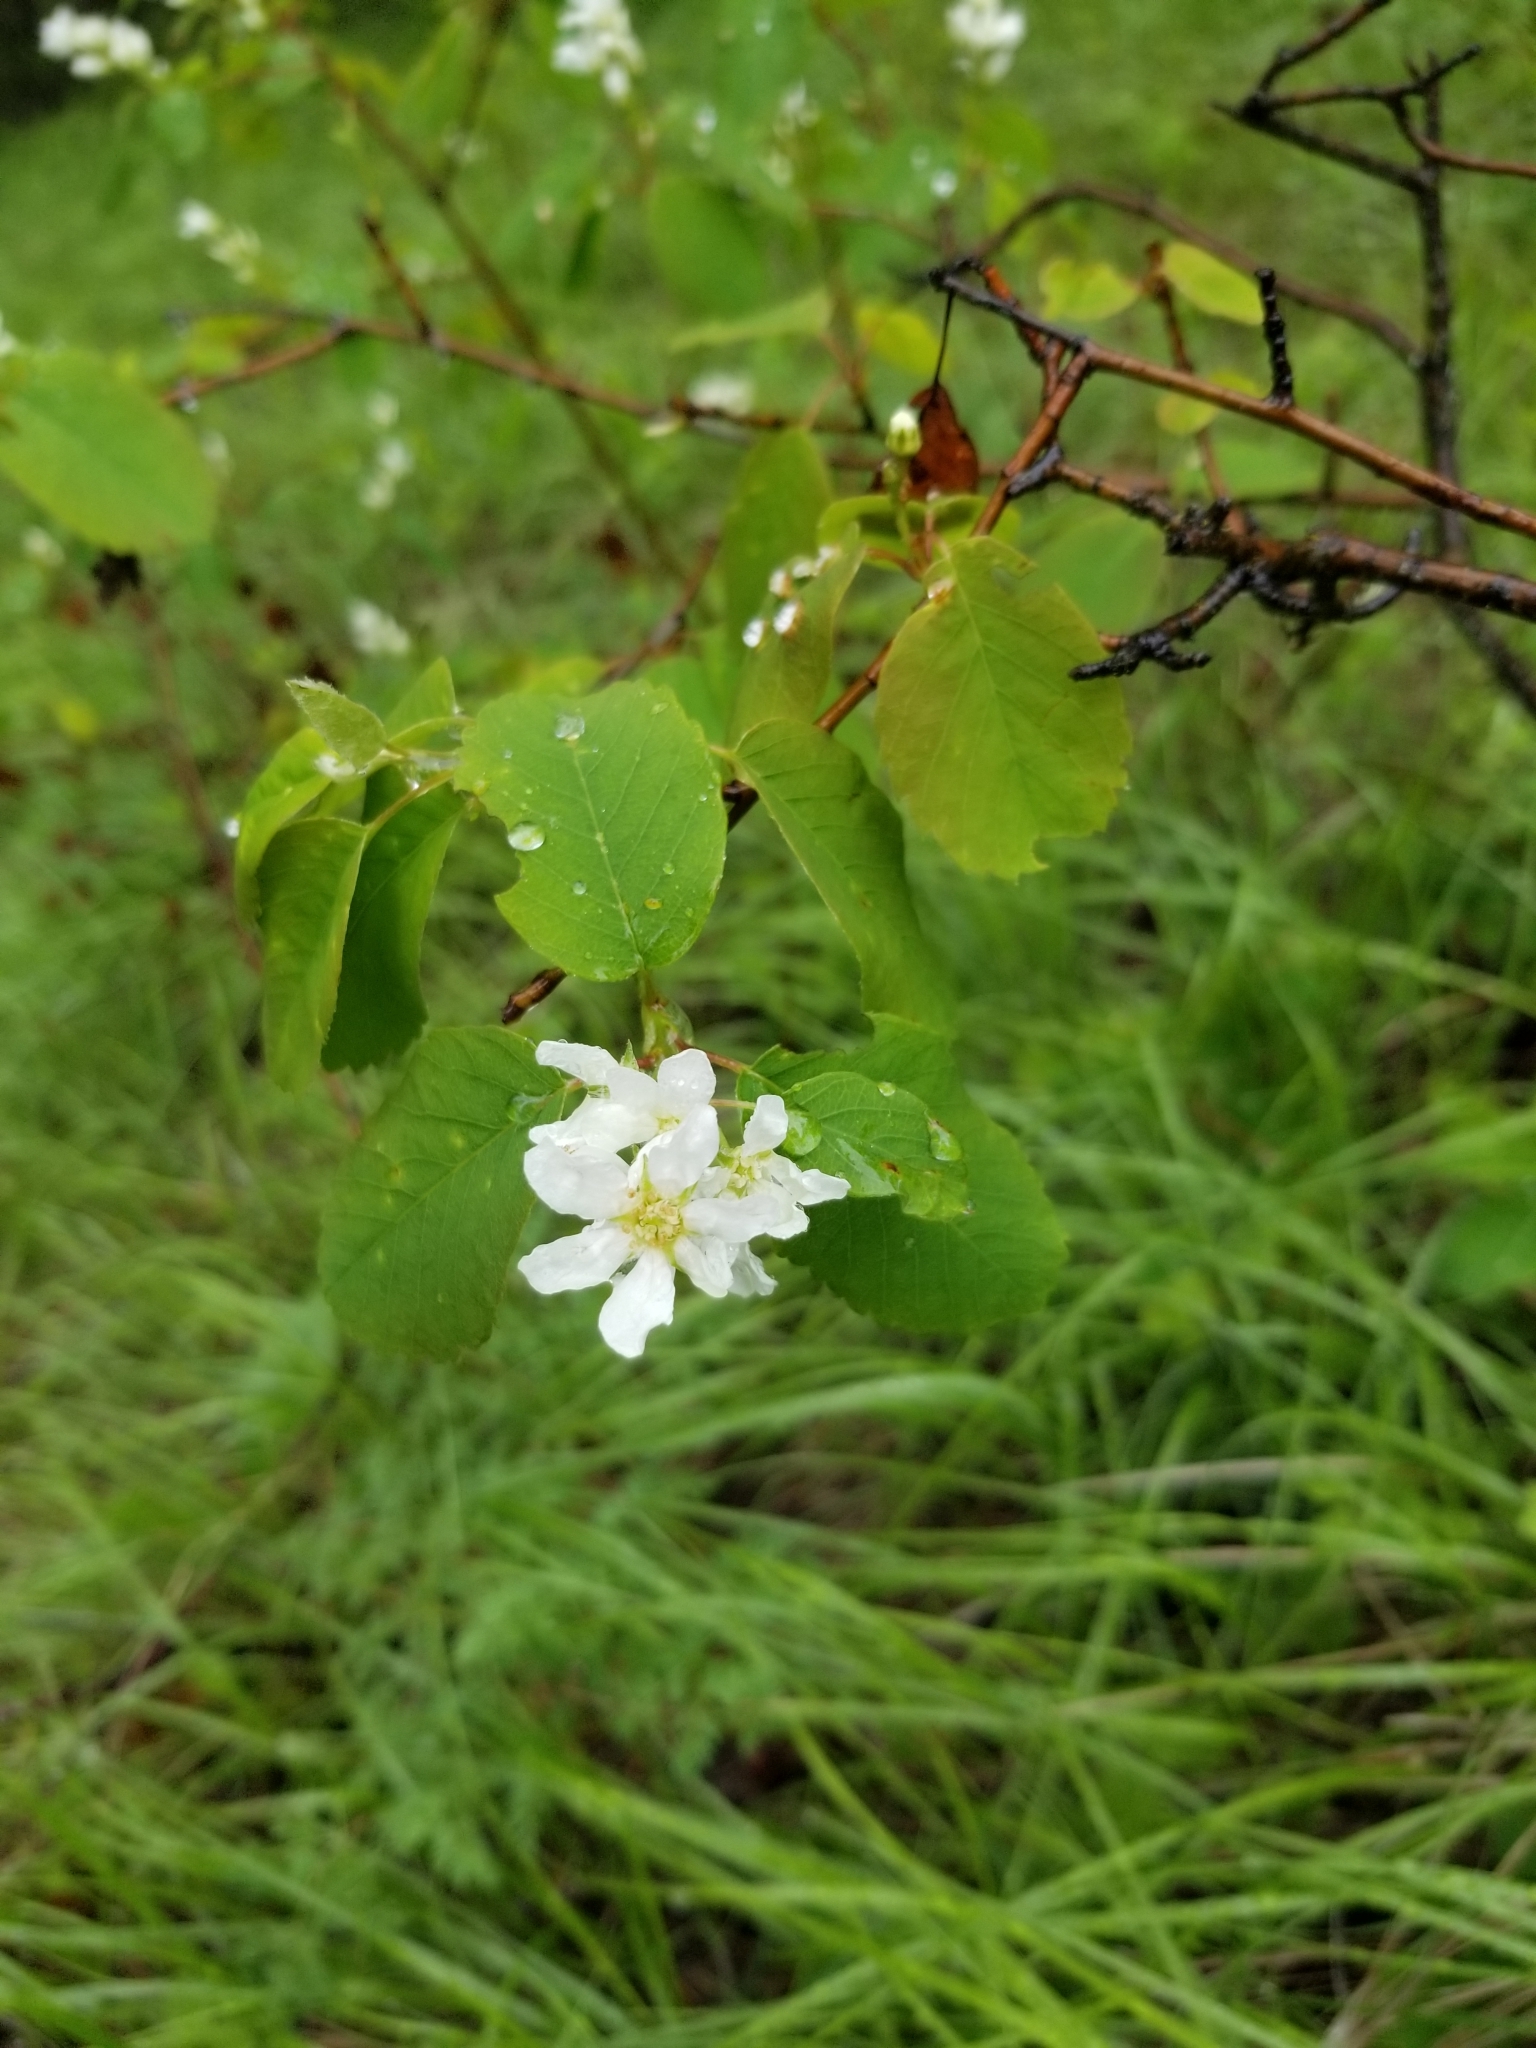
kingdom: Plantae
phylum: Tracheophyta
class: Magnoliopsida
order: Rosales
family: Rosaceae
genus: Amelanchier
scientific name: Amelanchier alnifolia
